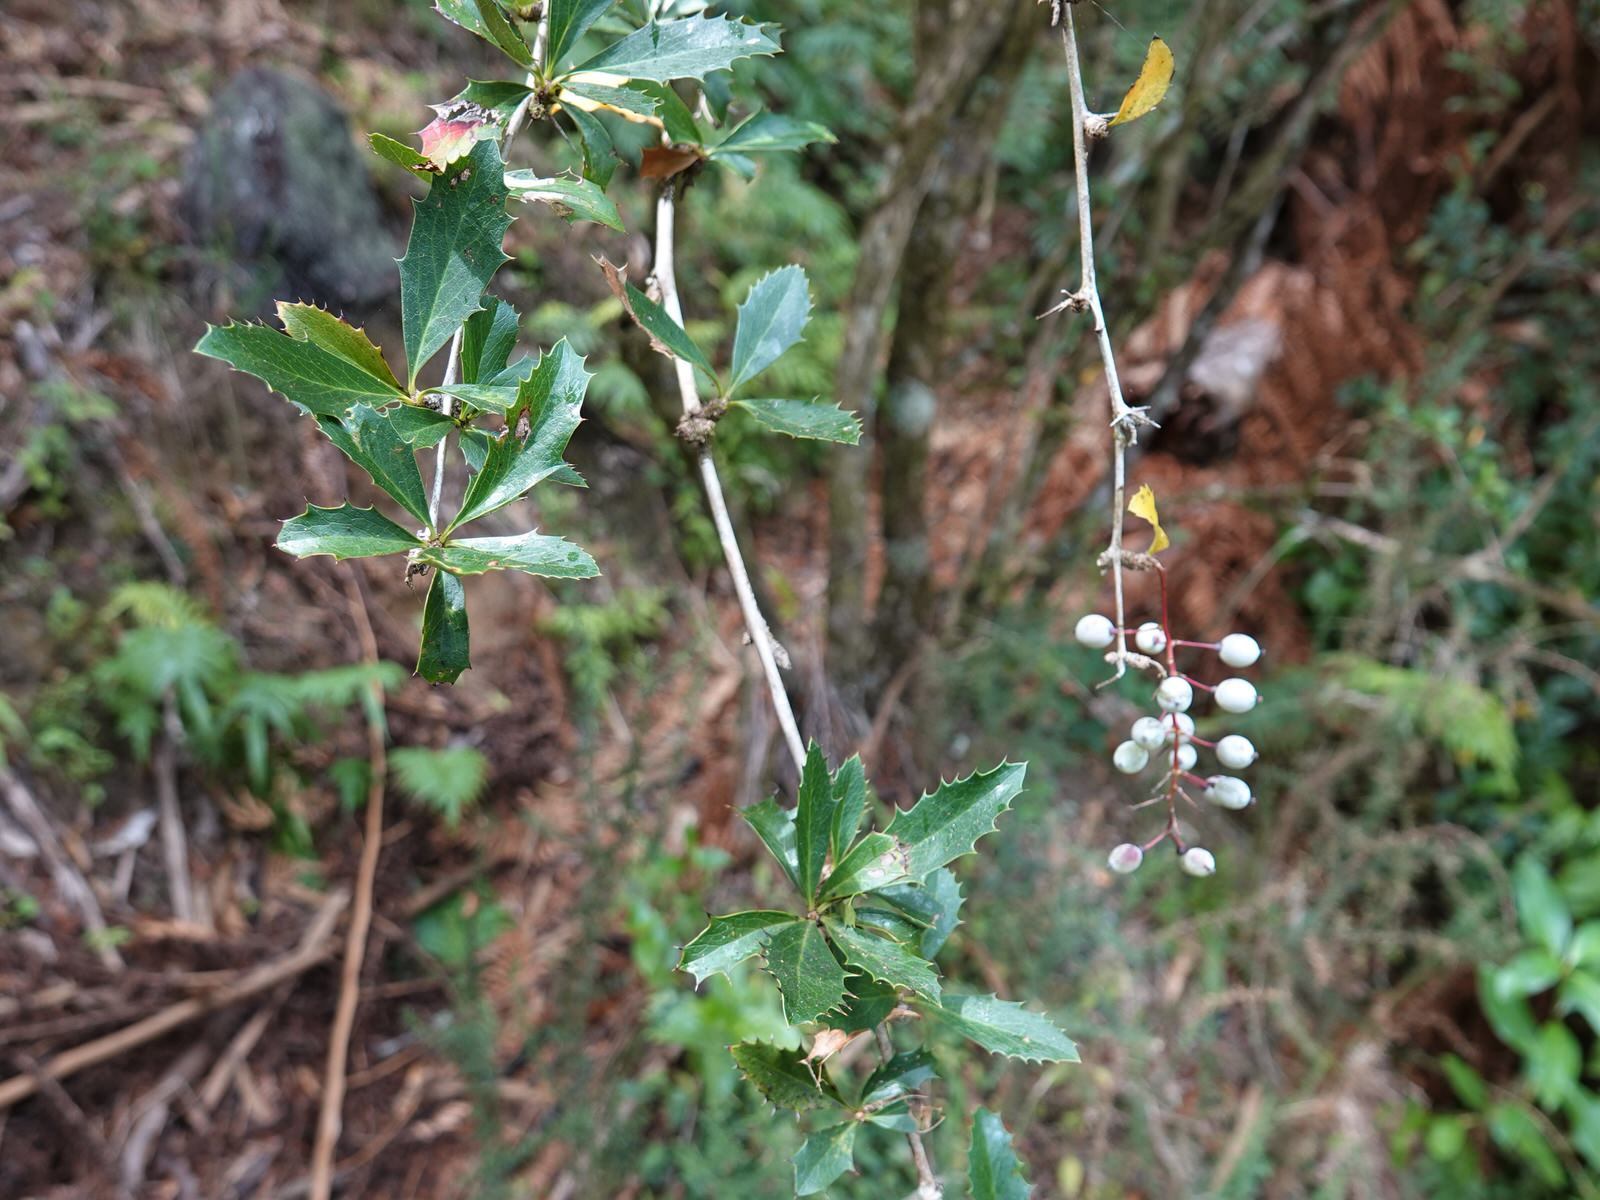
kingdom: Plantae
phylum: Tracheophyta
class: Magnoliopsida
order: Ranunculales
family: Berberidaceae
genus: Berberis
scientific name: Berberis glaucocarpa
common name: Great barberry
